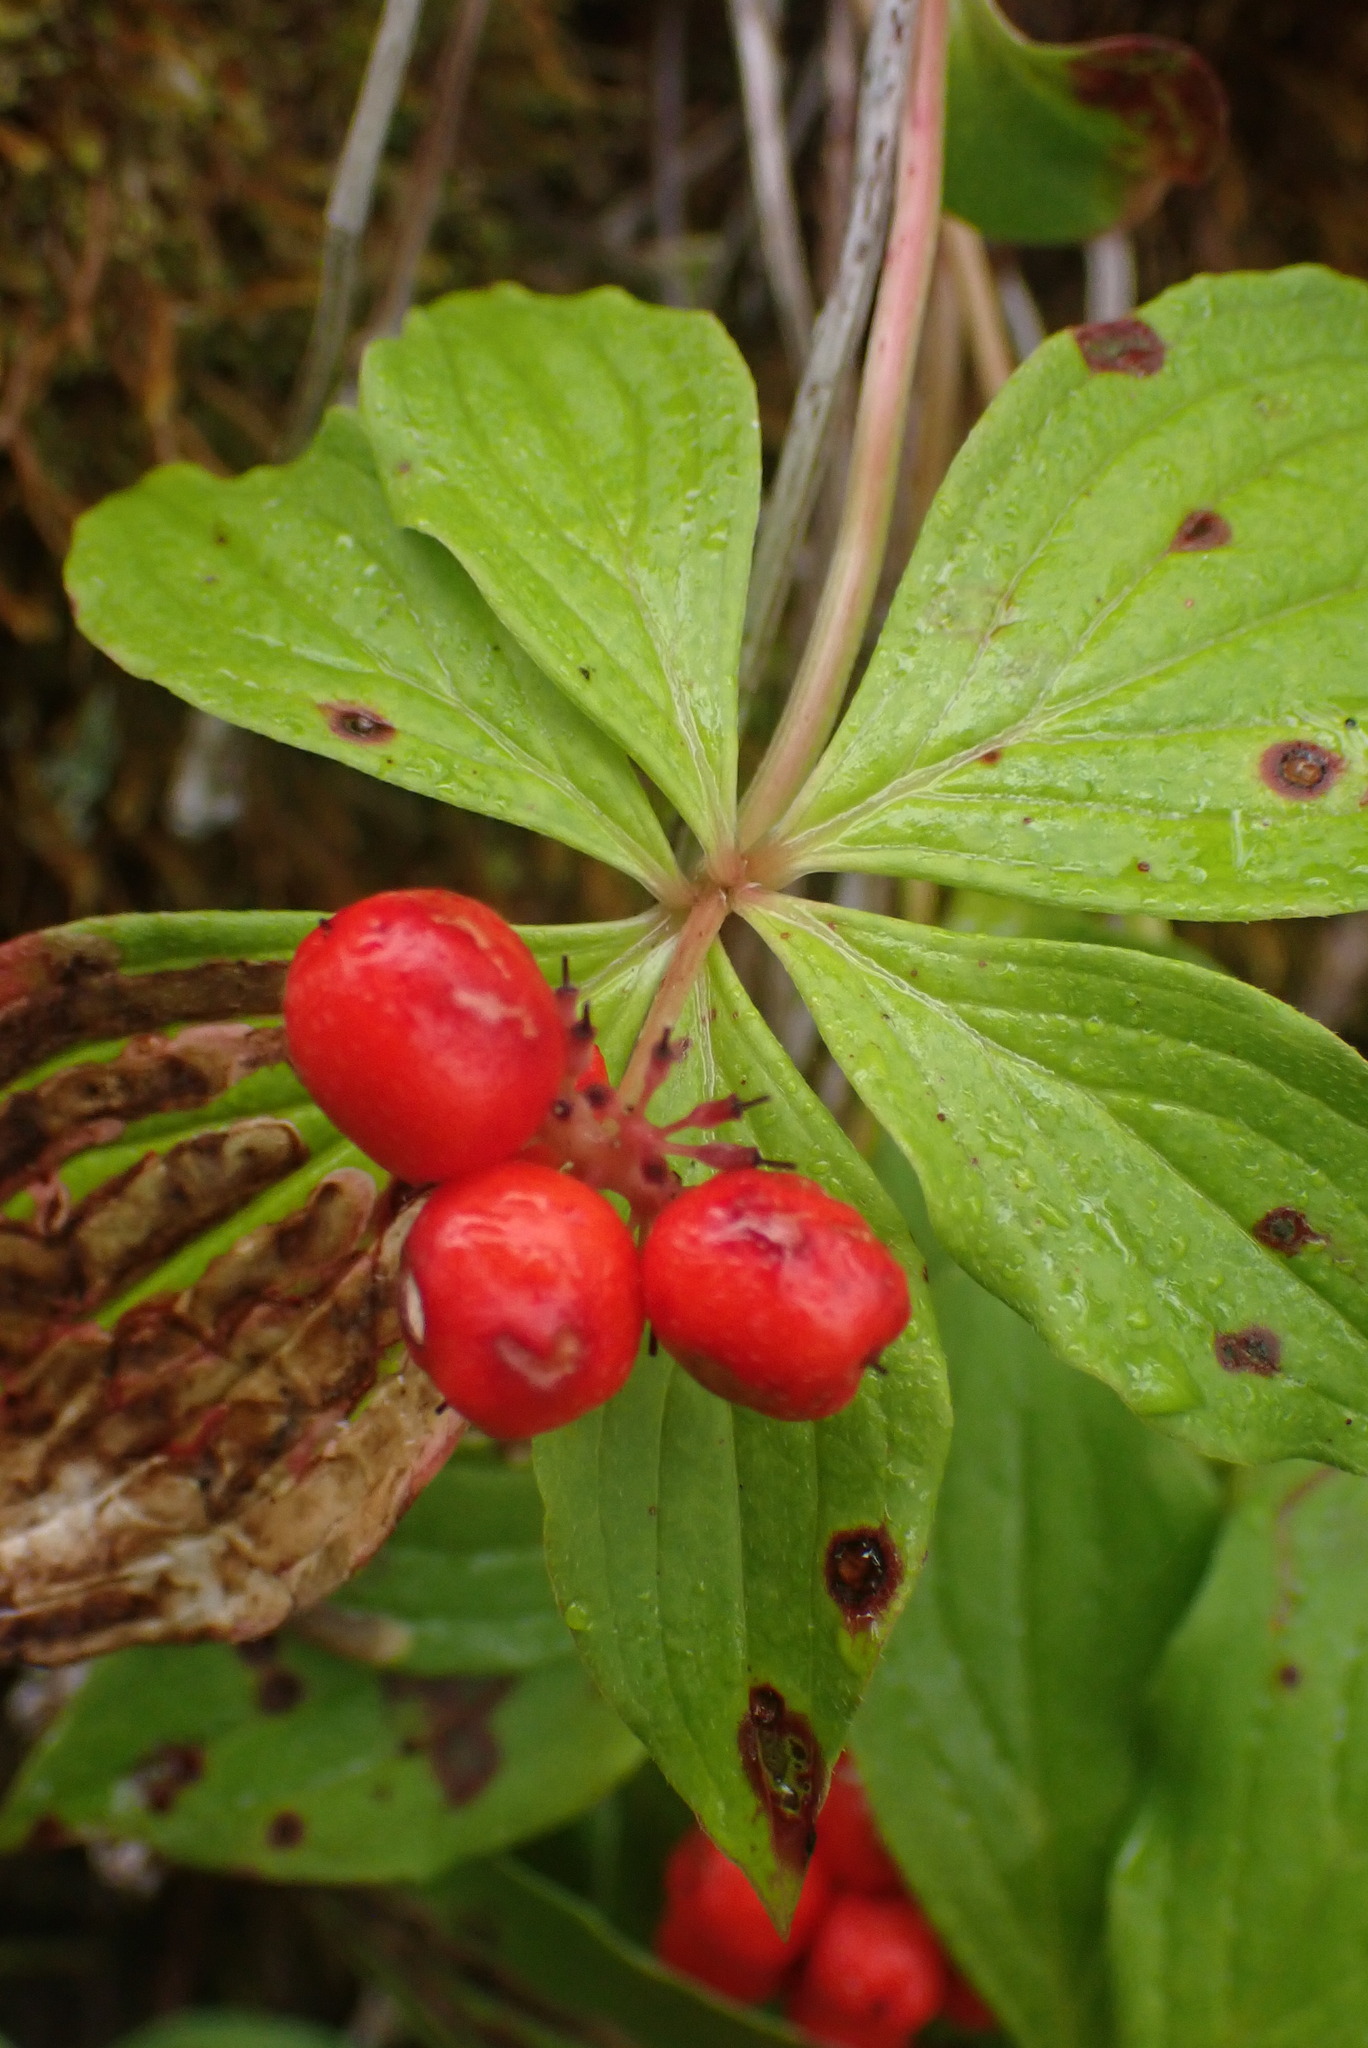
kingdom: Plantae
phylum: Tracheophyta
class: Magnoliopsida
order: Cornales
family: Cornaceae
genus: Cornus
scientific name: Cornus unalaschkensis
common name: Alaska bunchberry
